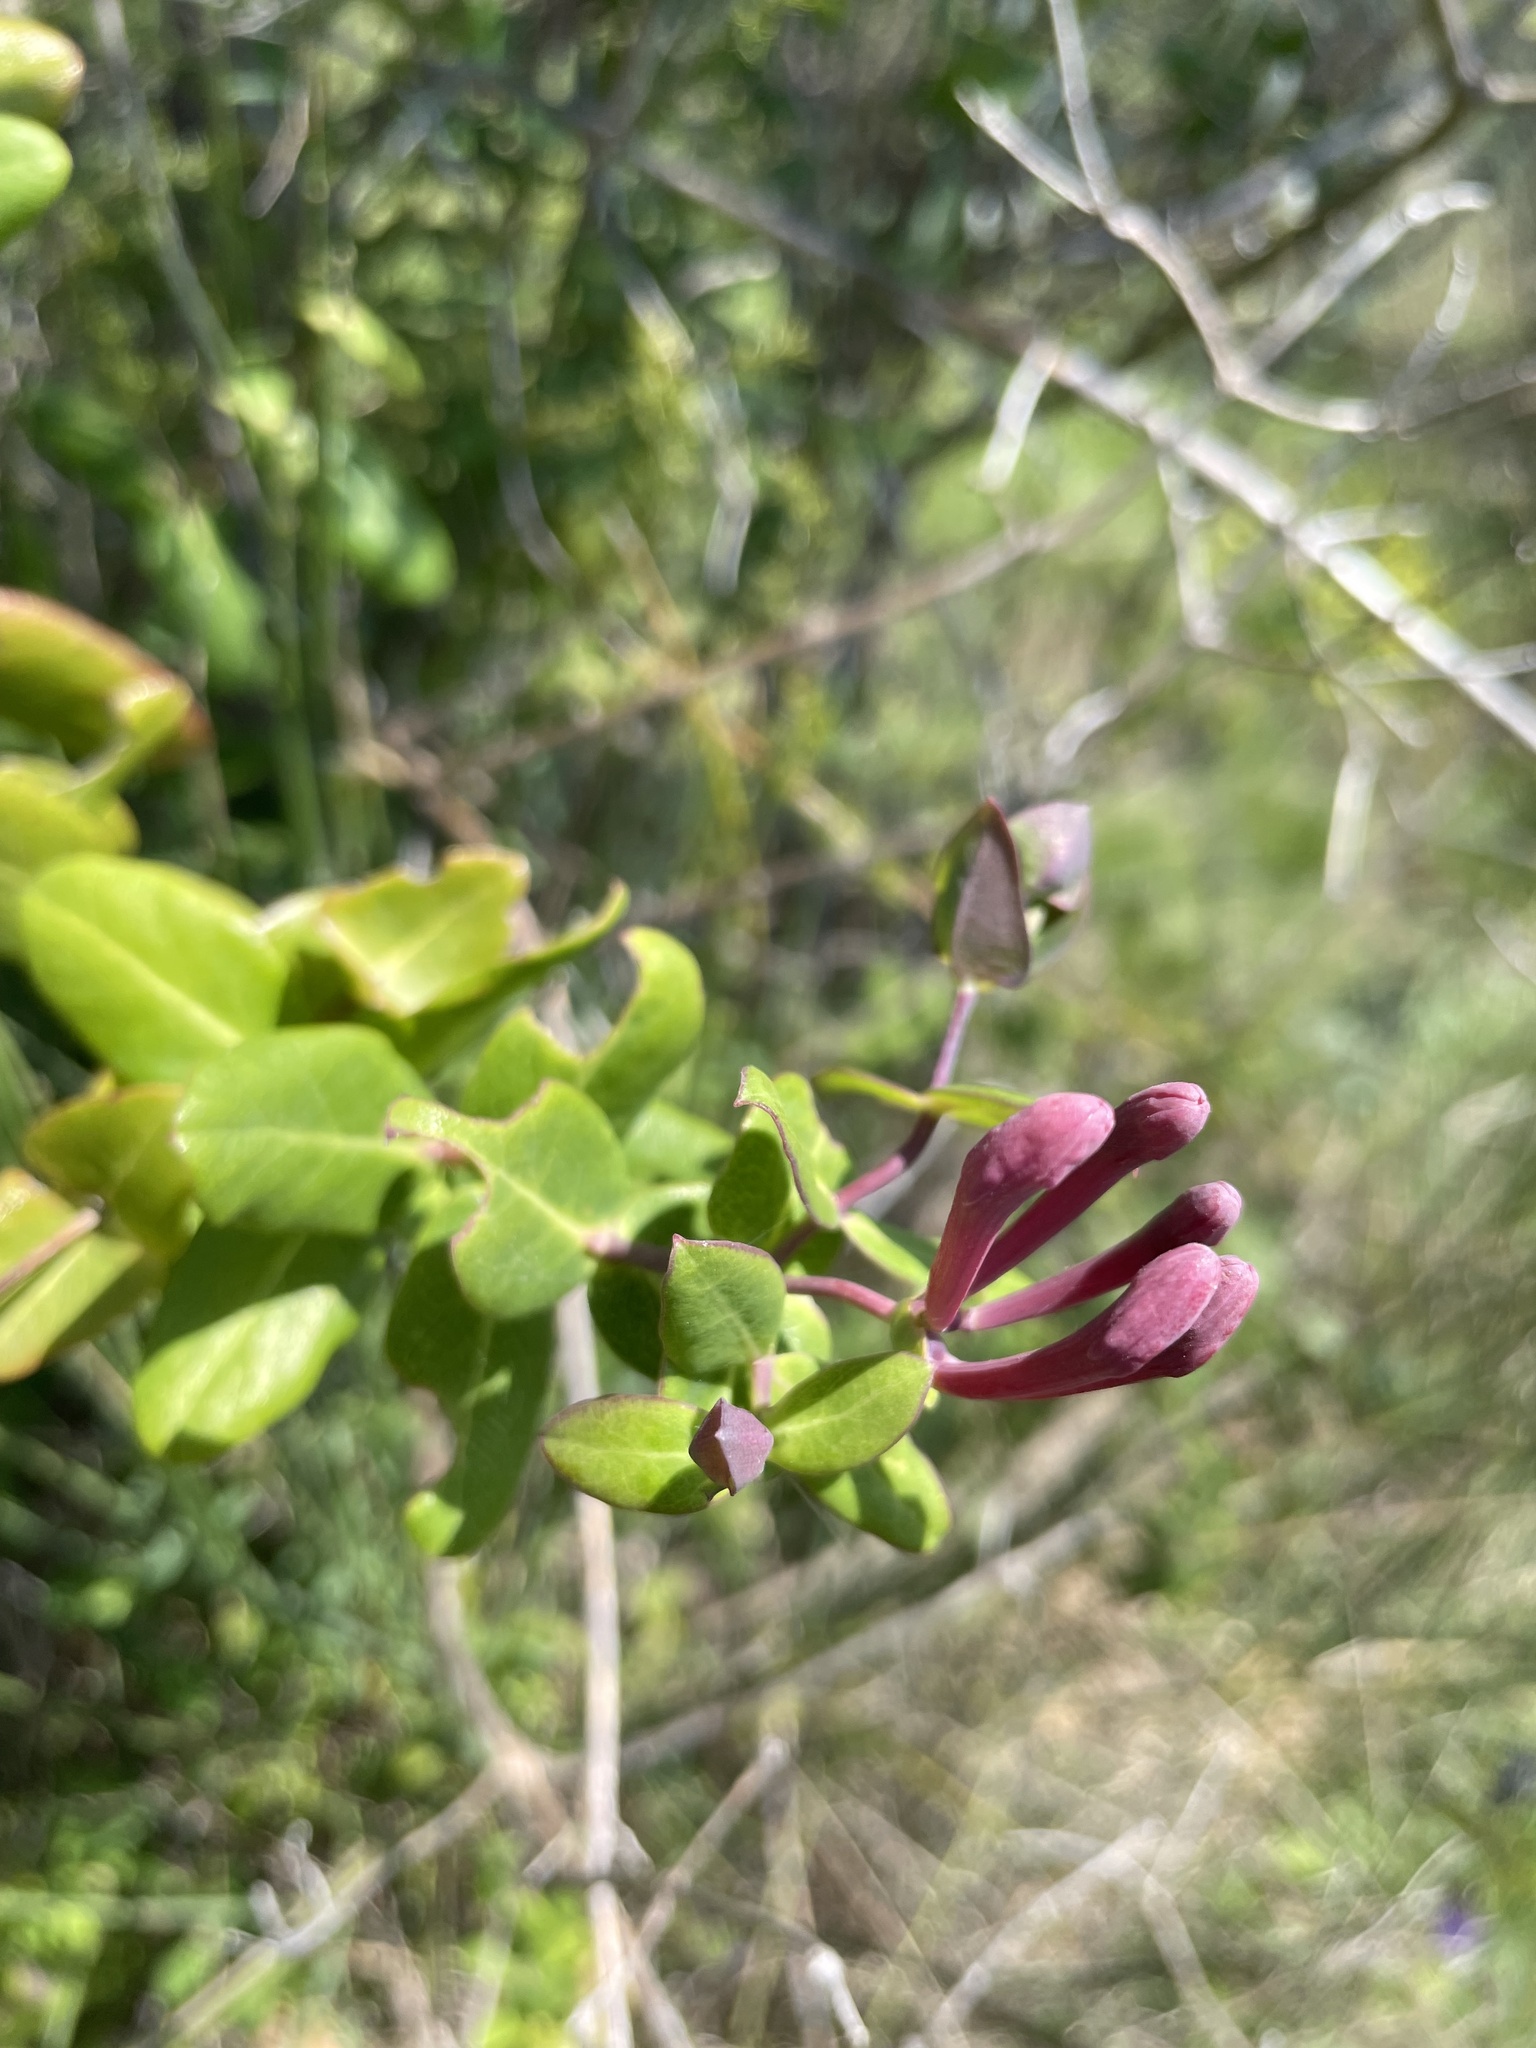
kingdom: Plantae
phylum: Tracheophyta
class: Magnoliopsida
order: Dipsacales
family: Caprifoliaceae
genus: Lonicera
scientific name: Lonicera implexa
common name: Minorca honeysuckle
